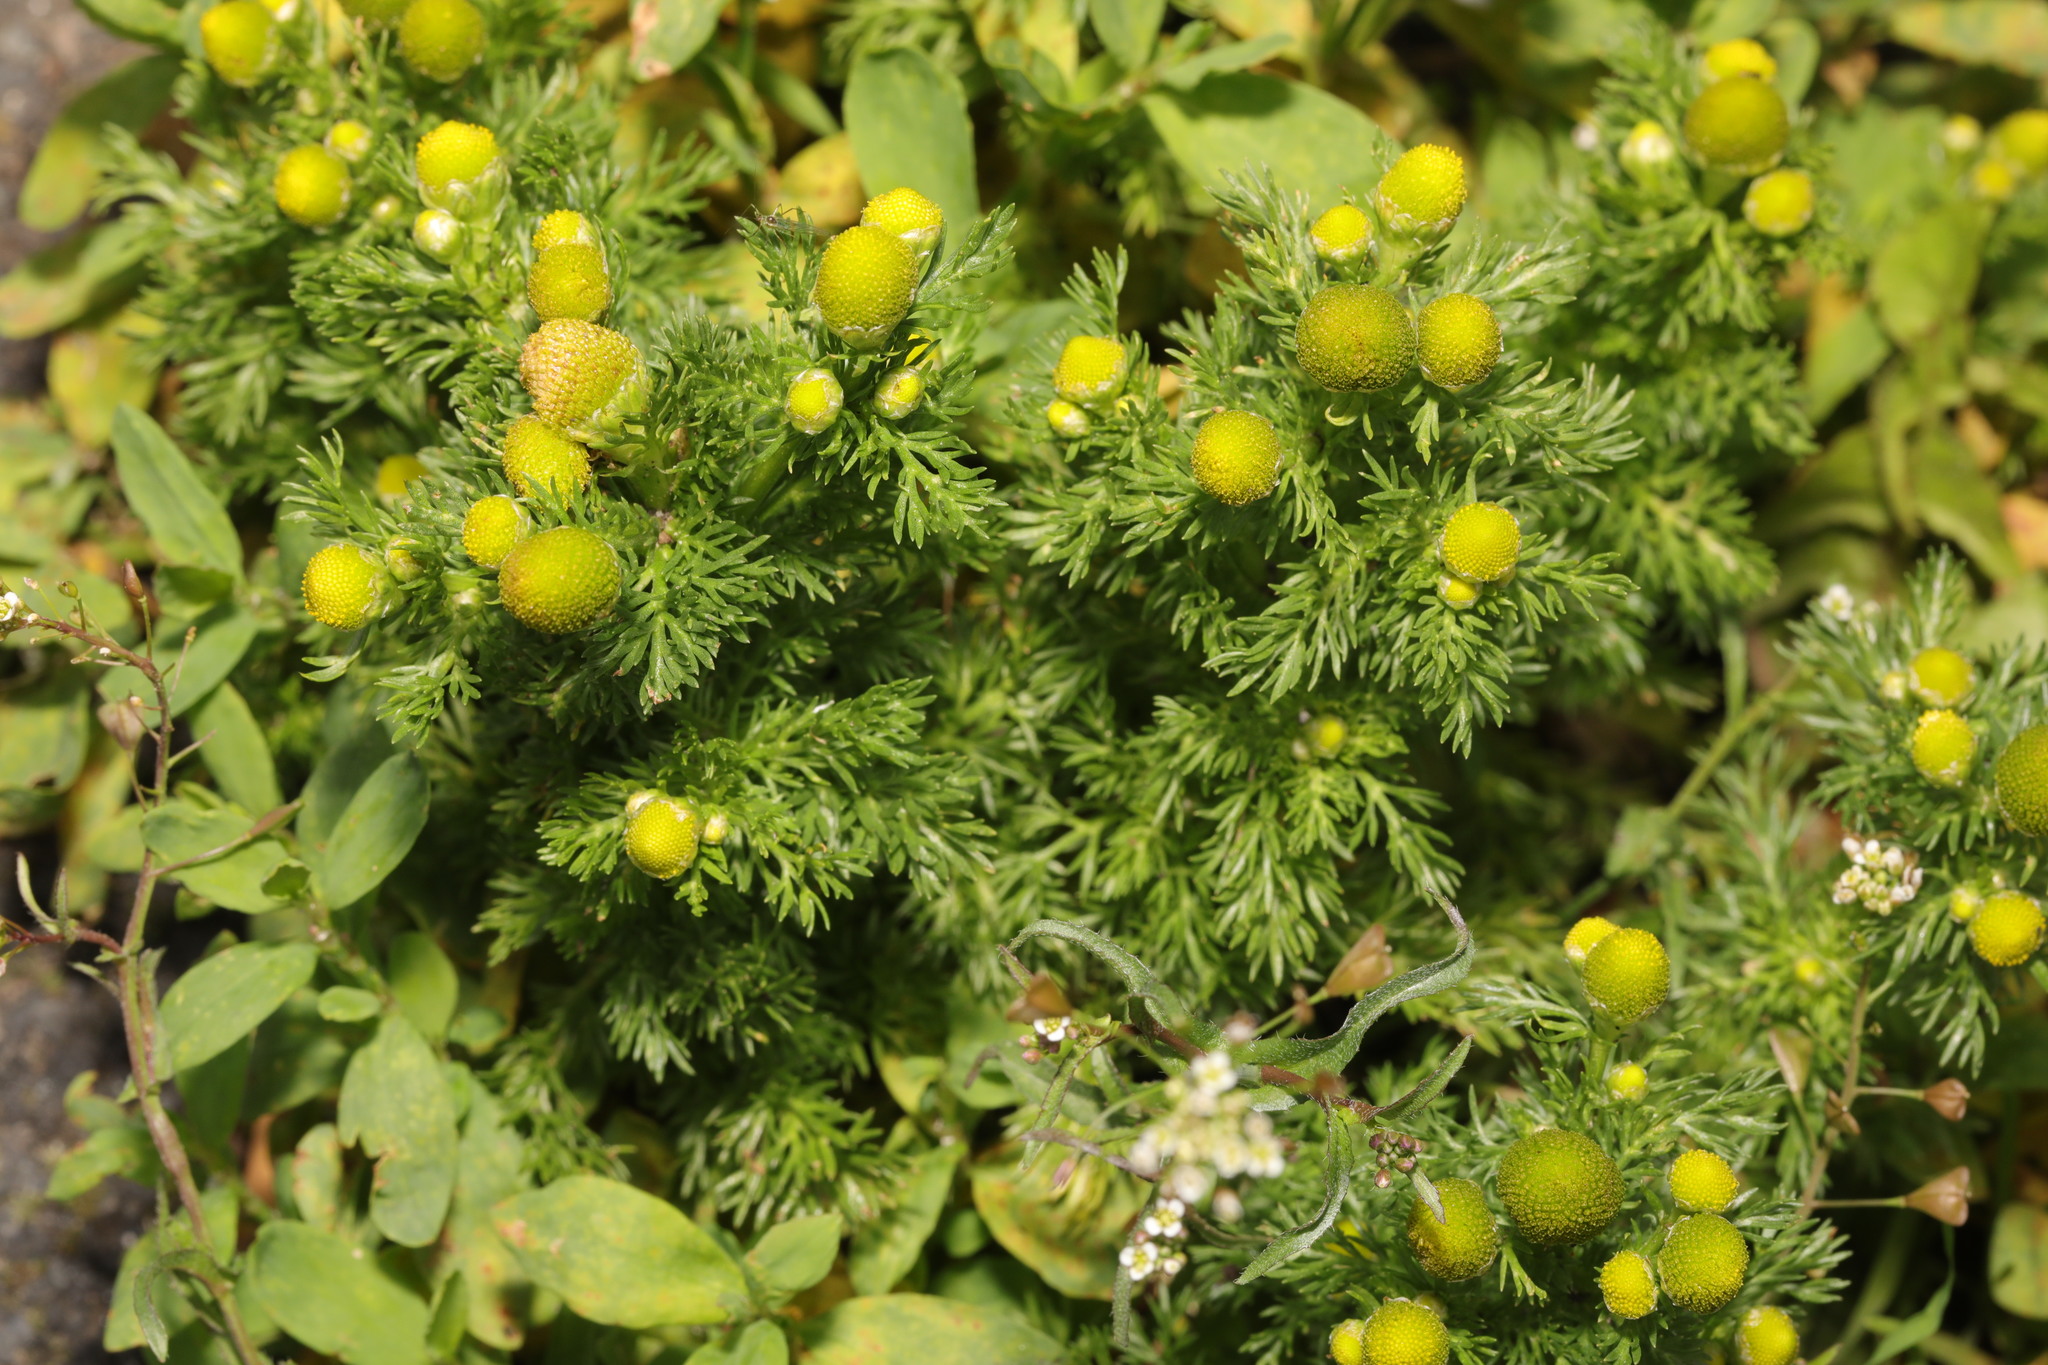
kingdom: Plantae
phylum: Tracheophyta
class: Magnoliopsida
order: Asterales
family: Asteraceae
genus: Matricaria
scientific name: Matricaria discoidea
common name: Disc mayweed
